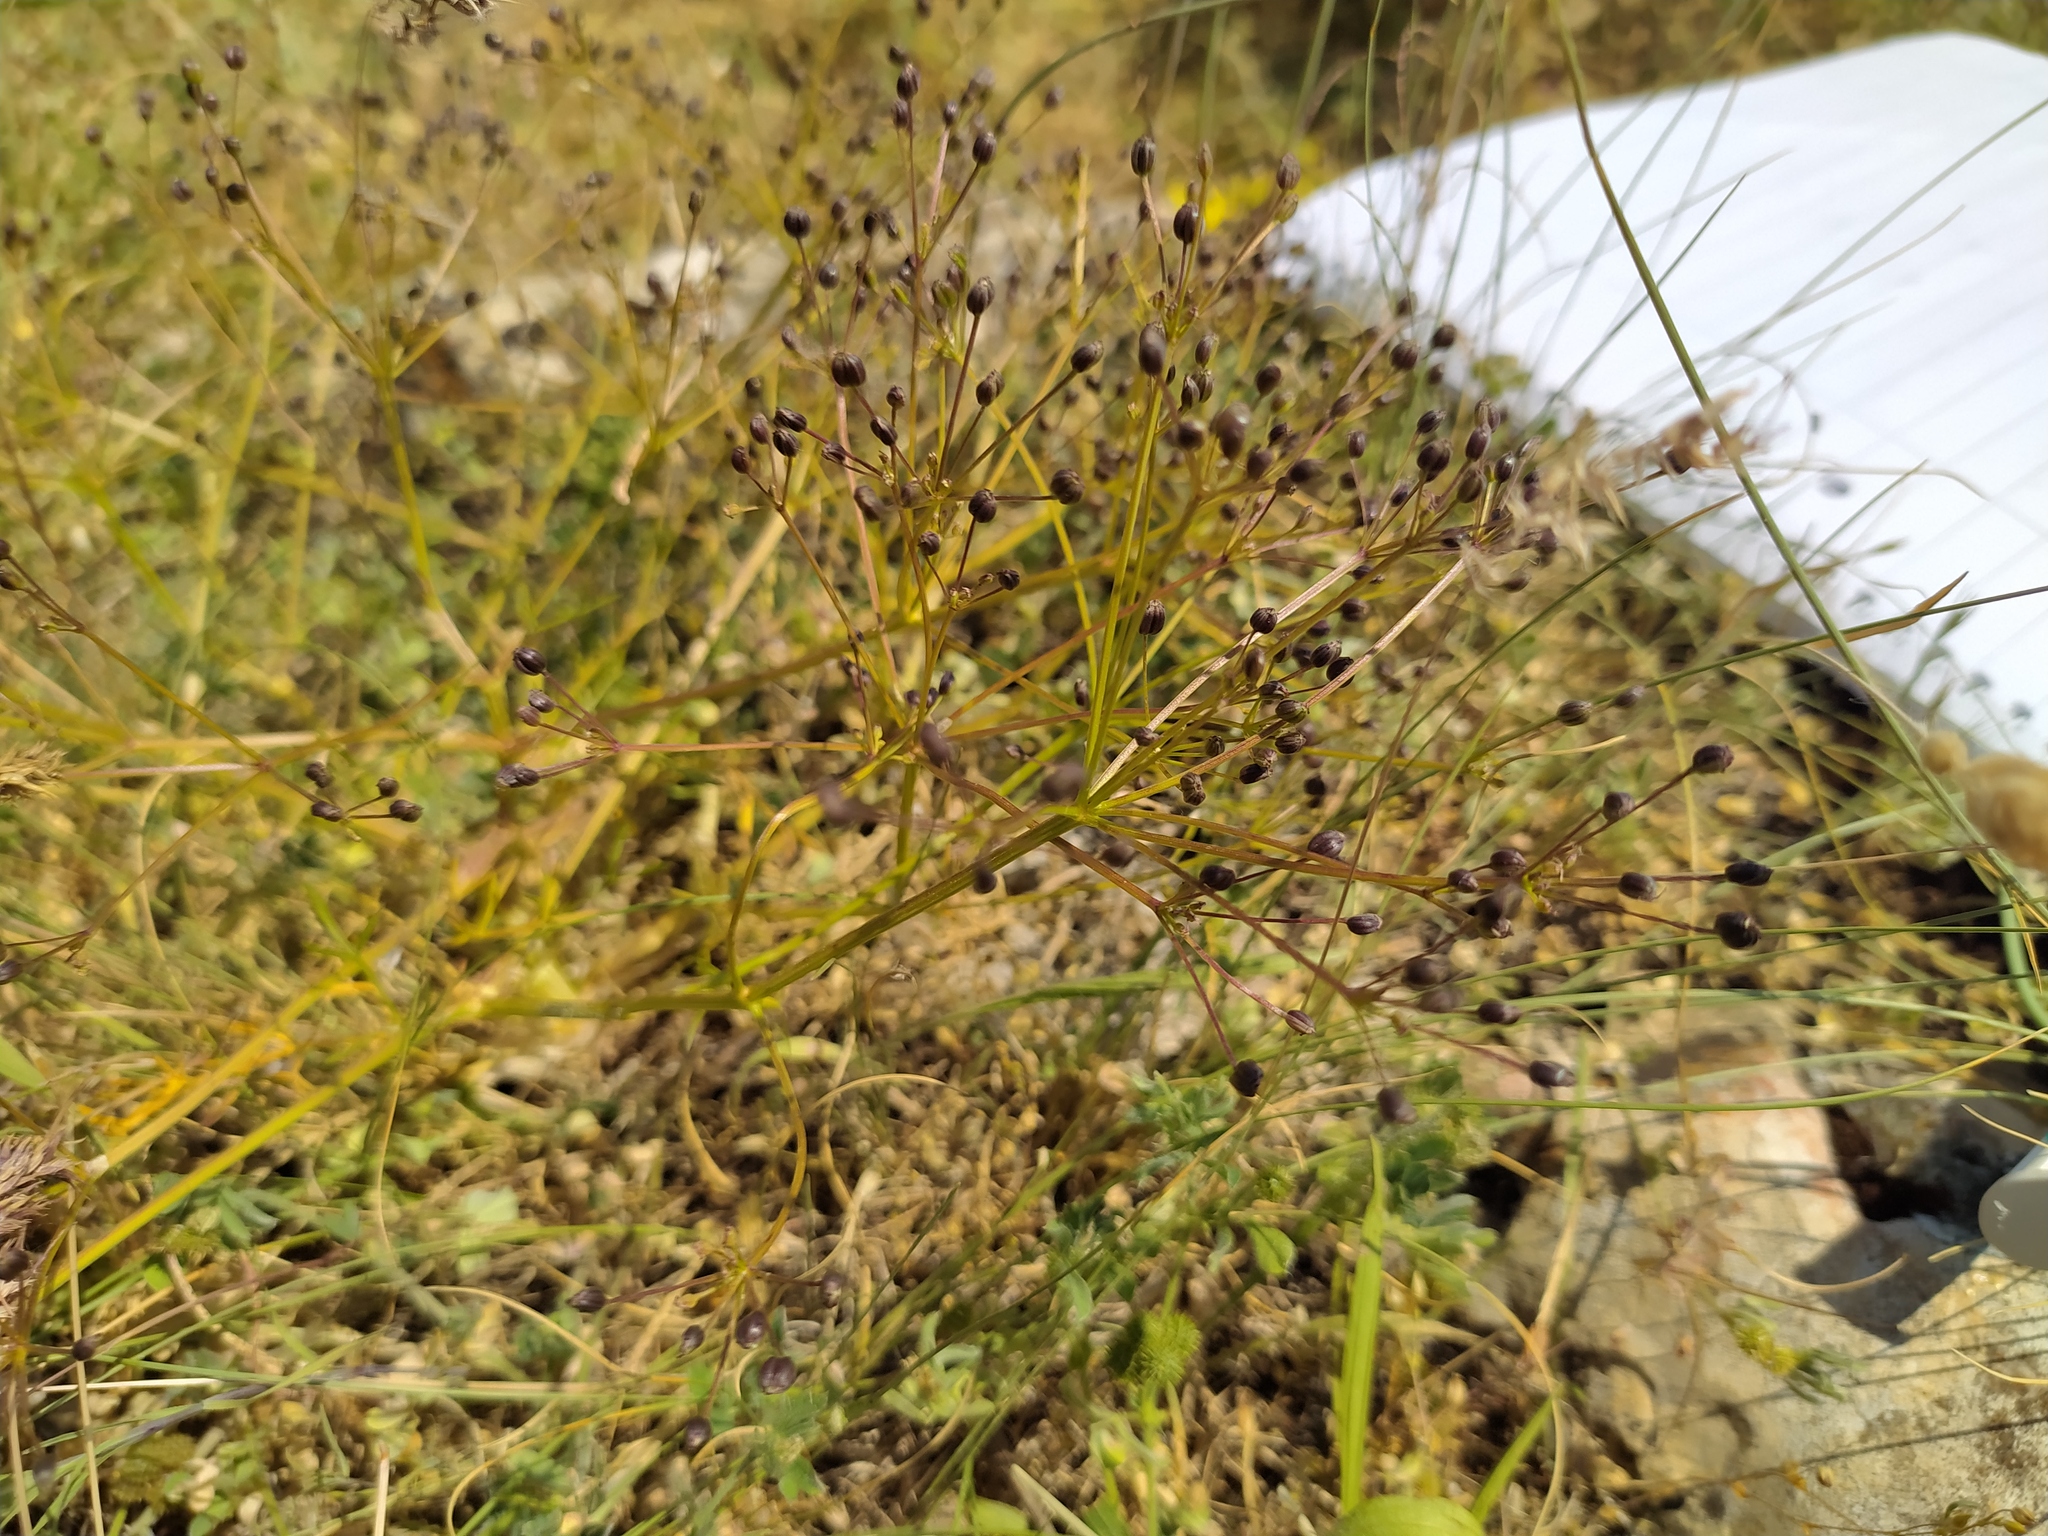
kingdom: Plantae
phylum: Tracheophyta
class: Magnoliopsida
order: Apiales
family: Apiaceae
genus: Trinia
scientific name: Trinia glauca
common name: Honewort
